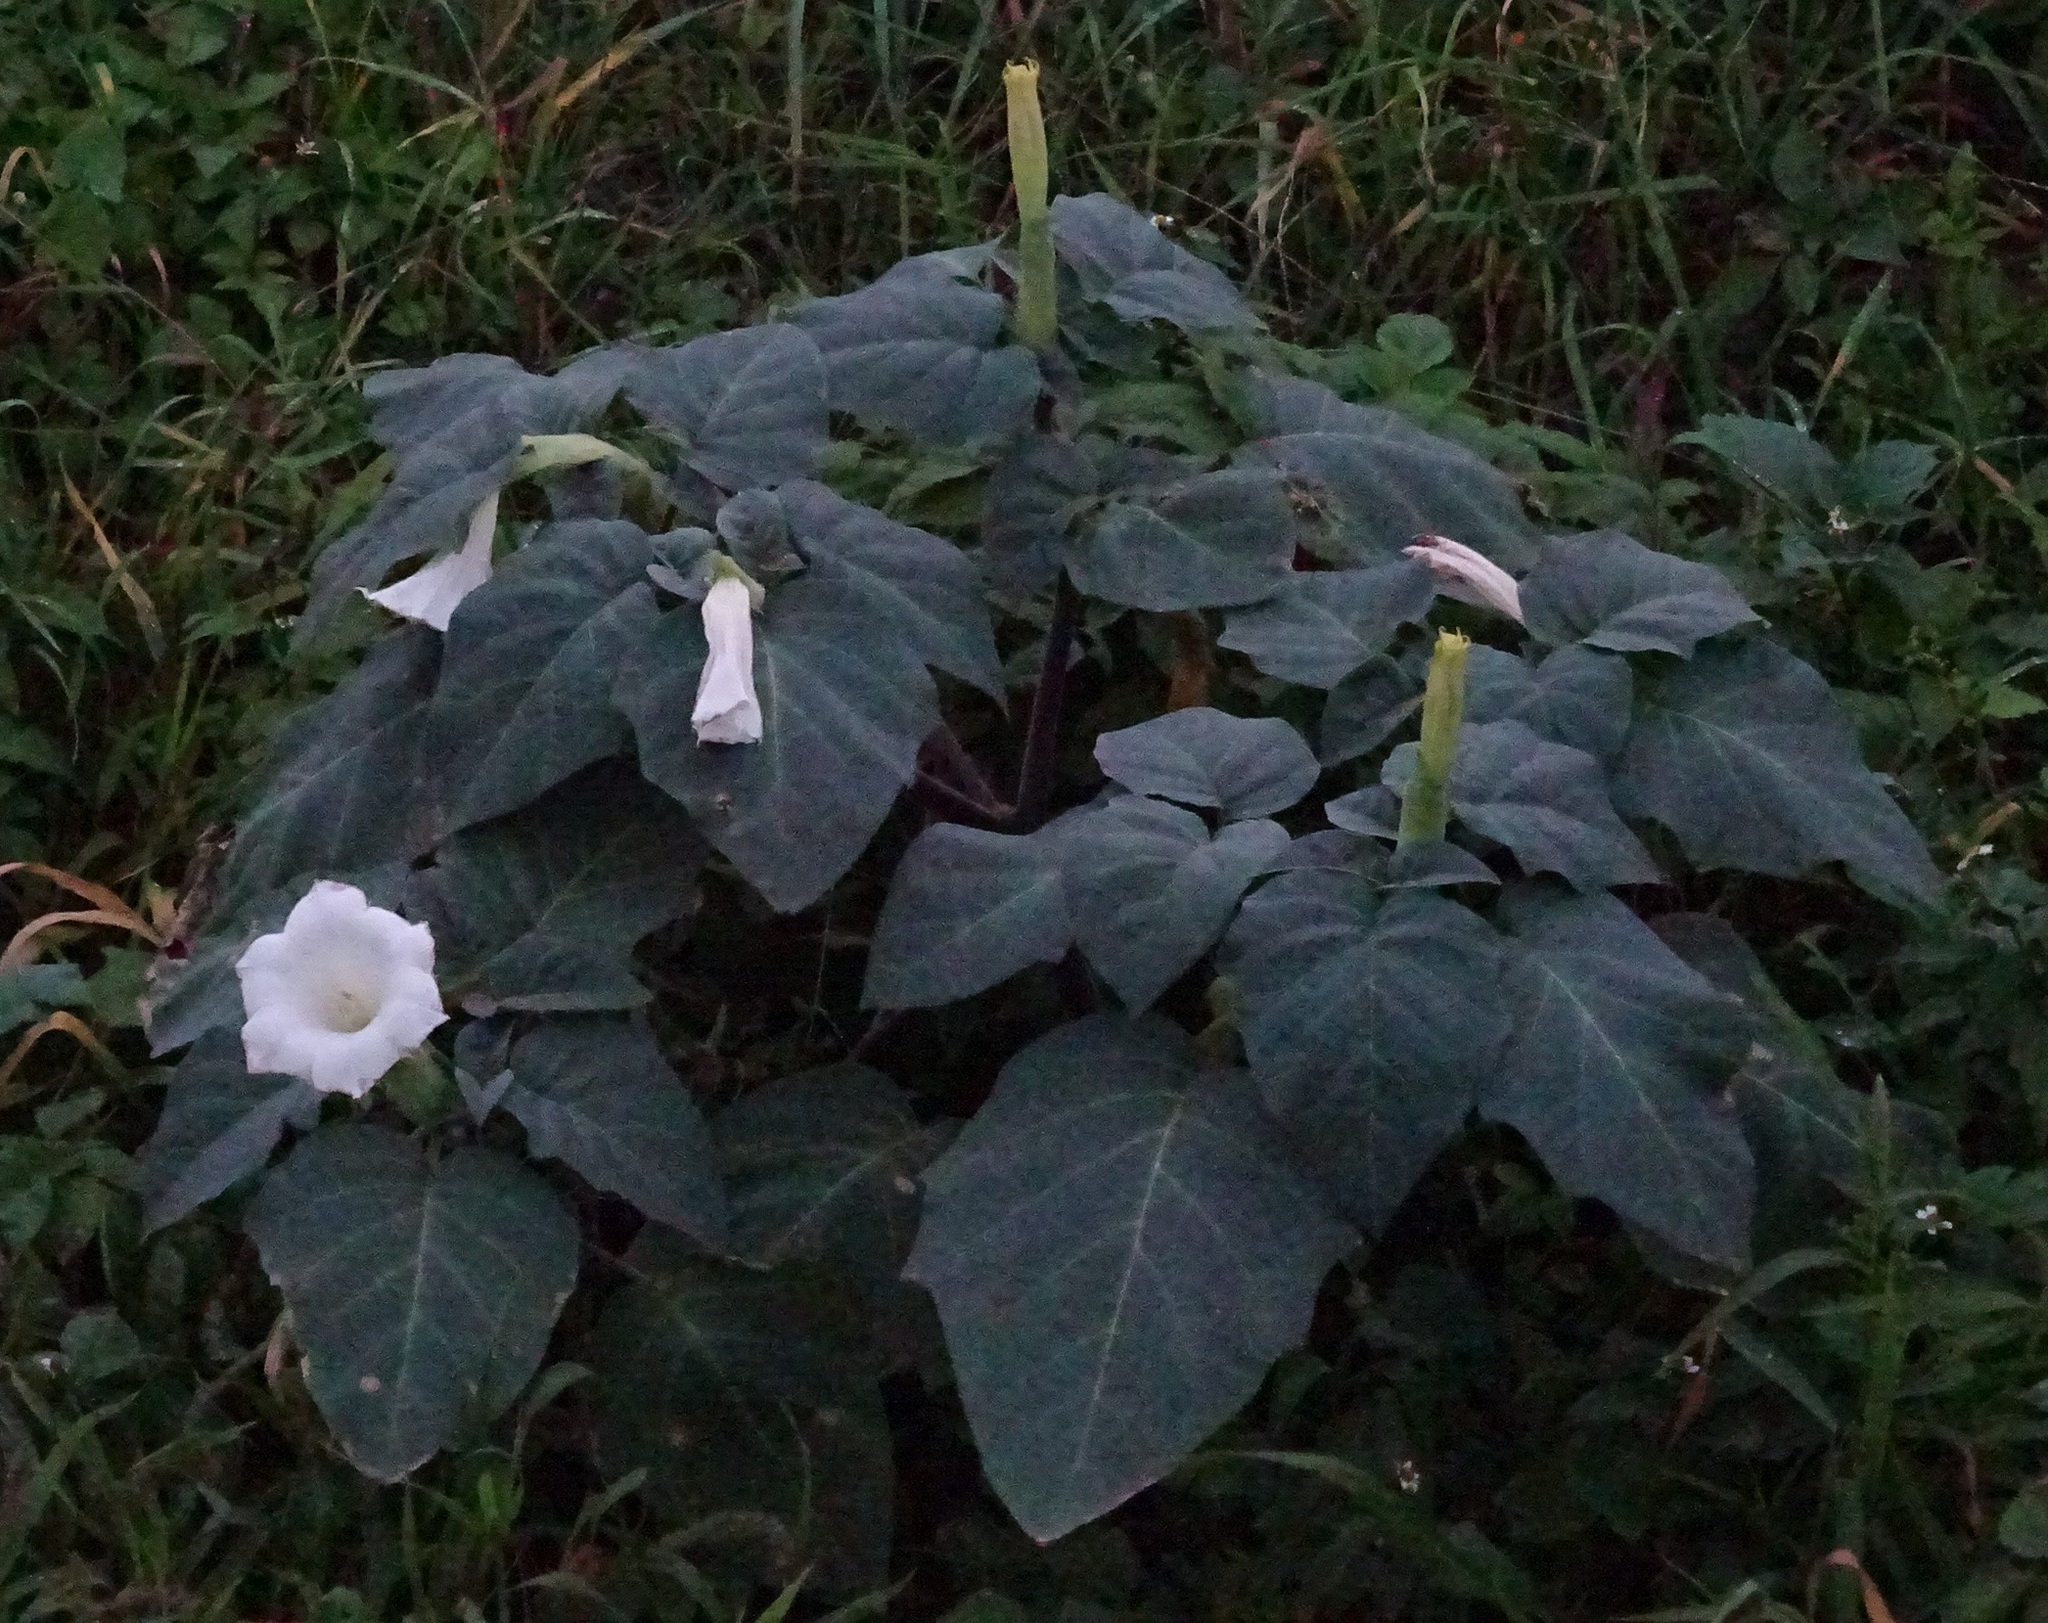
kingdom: Plantae
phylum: Tracheophyta
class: Magnoliopsida
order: Solanales
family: Solanaceae
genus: Datura
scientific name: Datura innoxia
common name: Downy thorn-apple
